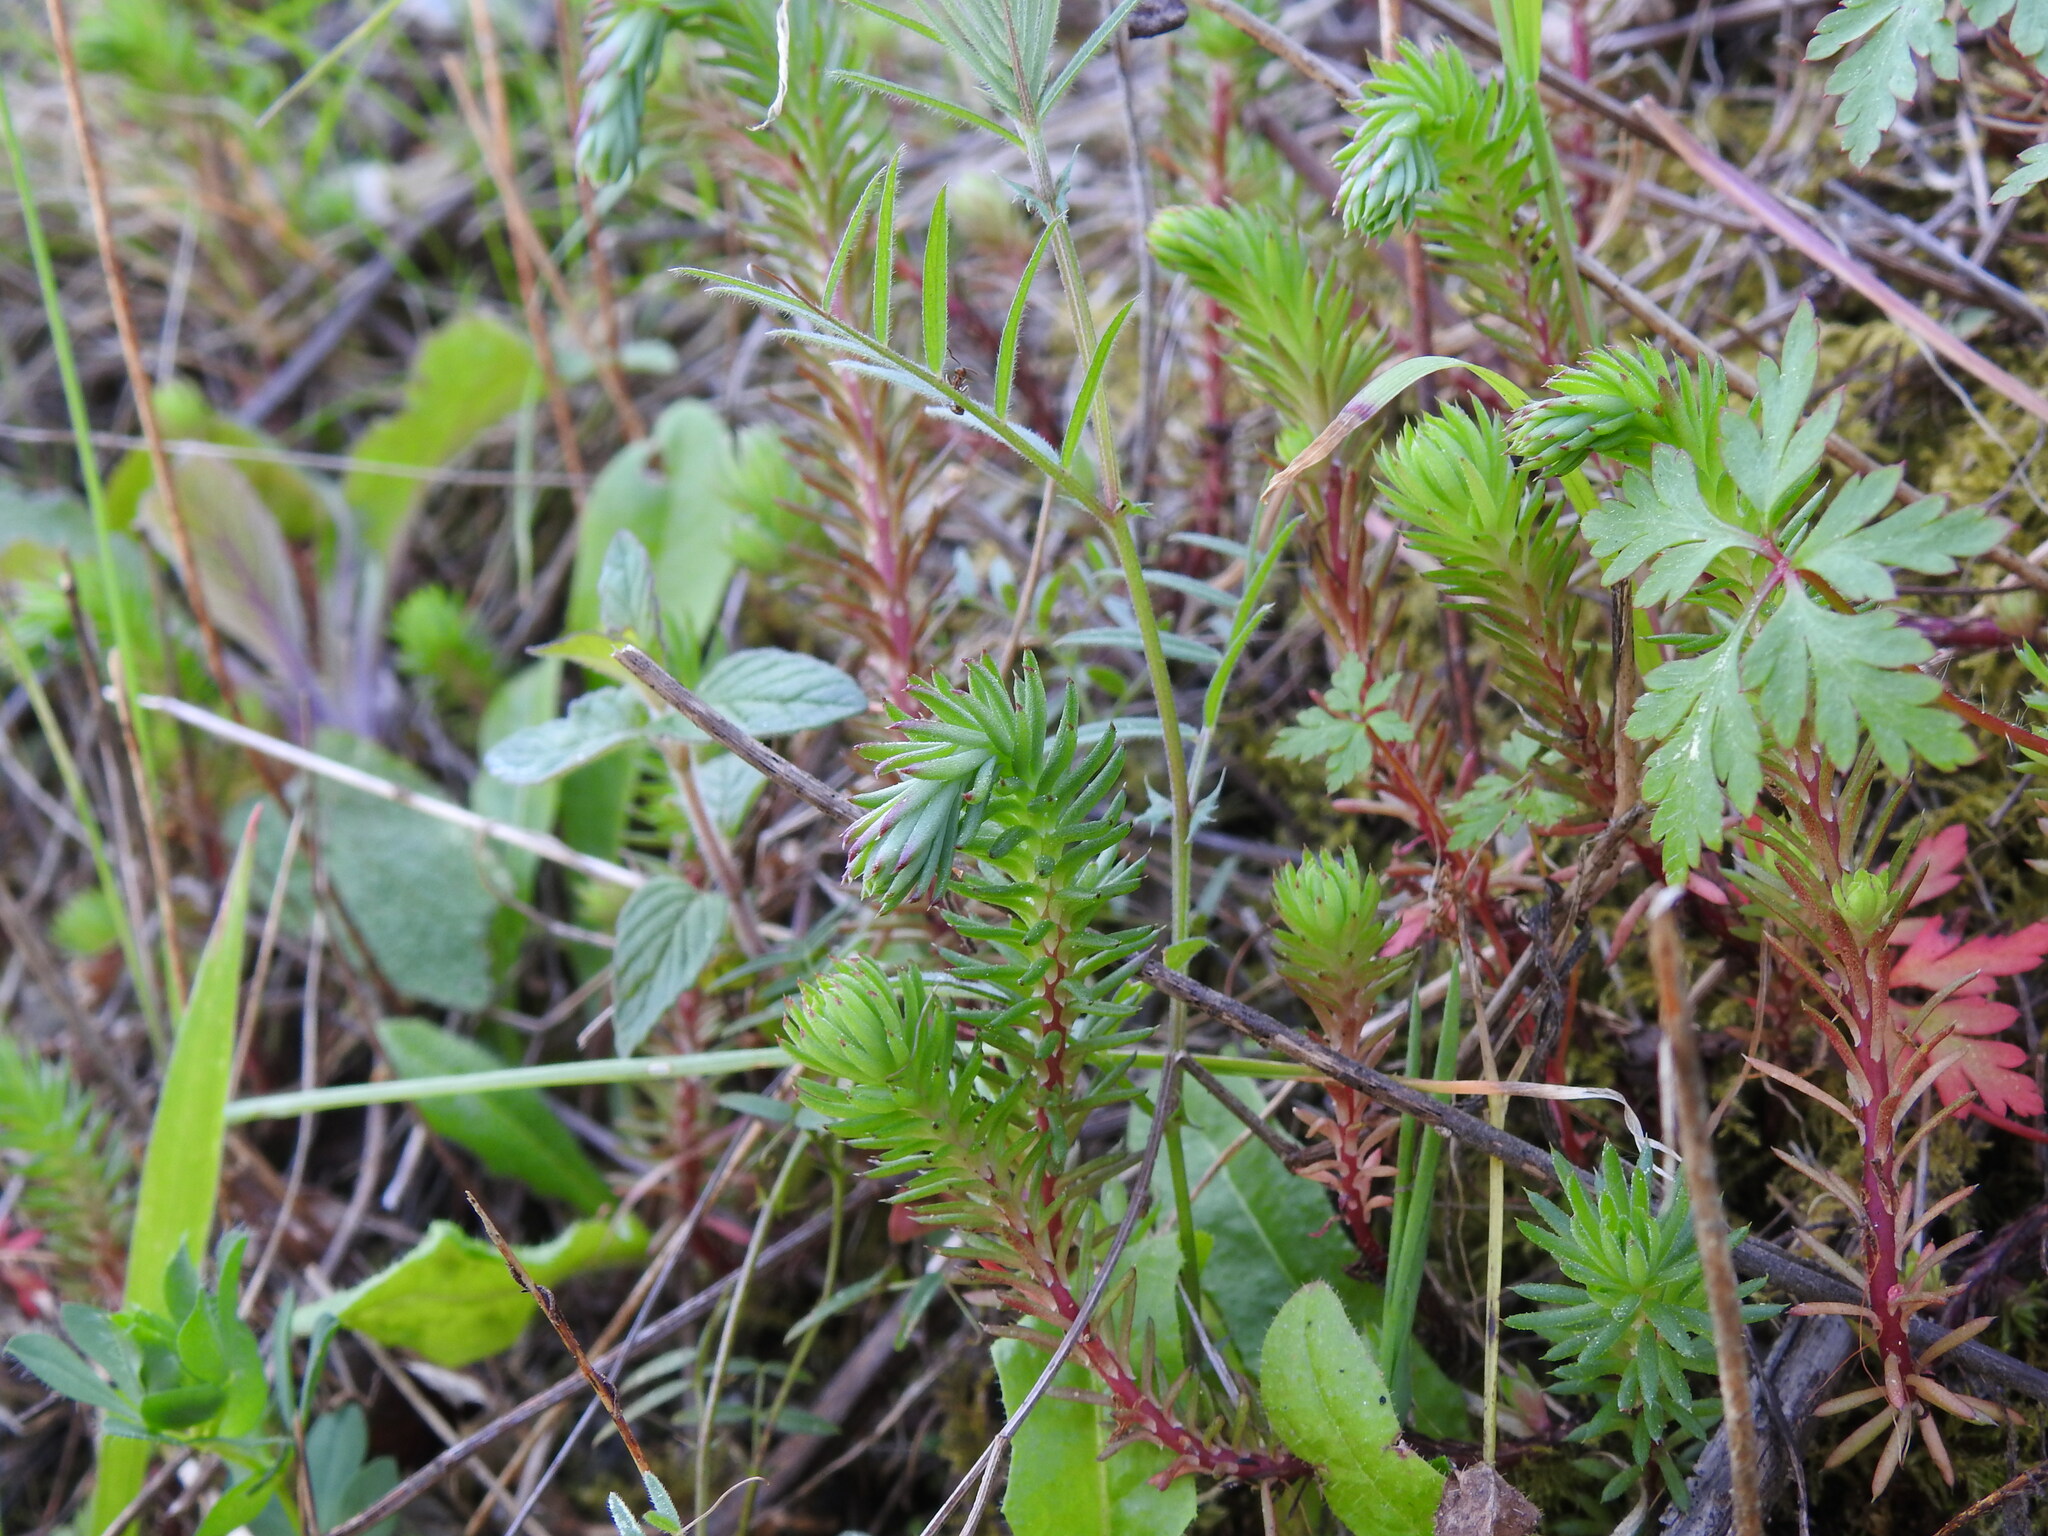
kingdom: Plantae
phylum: Tracheophyta
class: Magnoliopsida
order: Saxifragales
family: Crassulaceae
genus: Petrosedum
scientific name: Petrosedum forsterianum
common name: Forster's stonecrop
